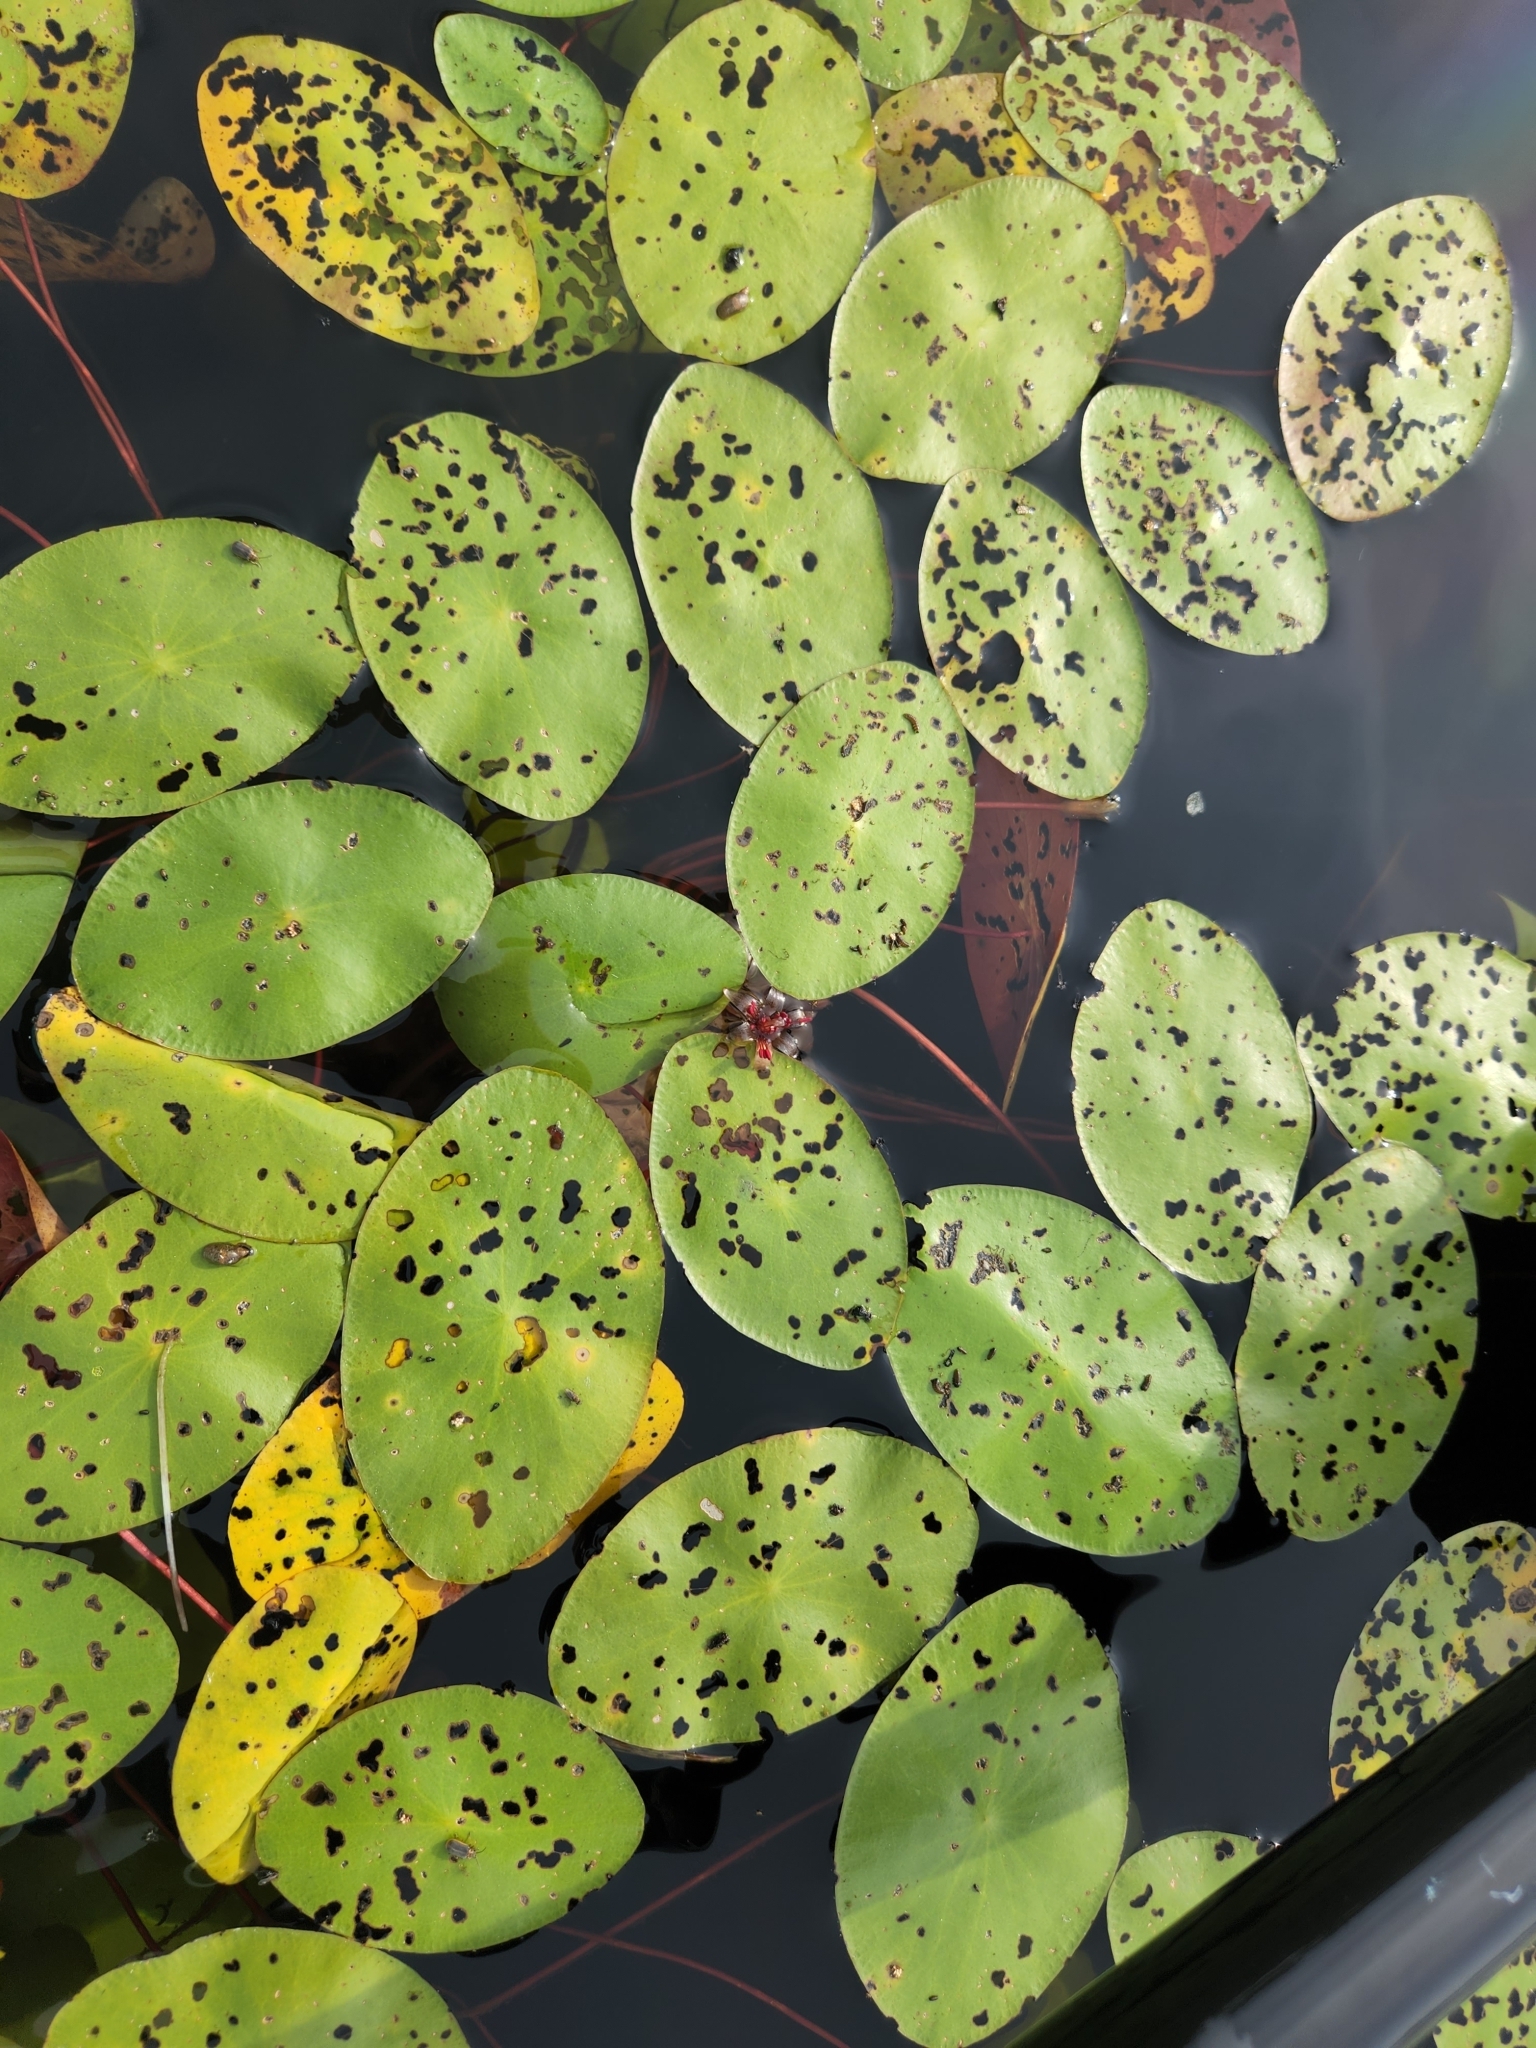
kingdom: Plantae
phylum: Tracheophyta
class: Magnoliopsida
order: Nymphaeales
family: Cabombaceae
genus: Brasenia
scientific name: Brasenia schreberi
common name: Water-shield
